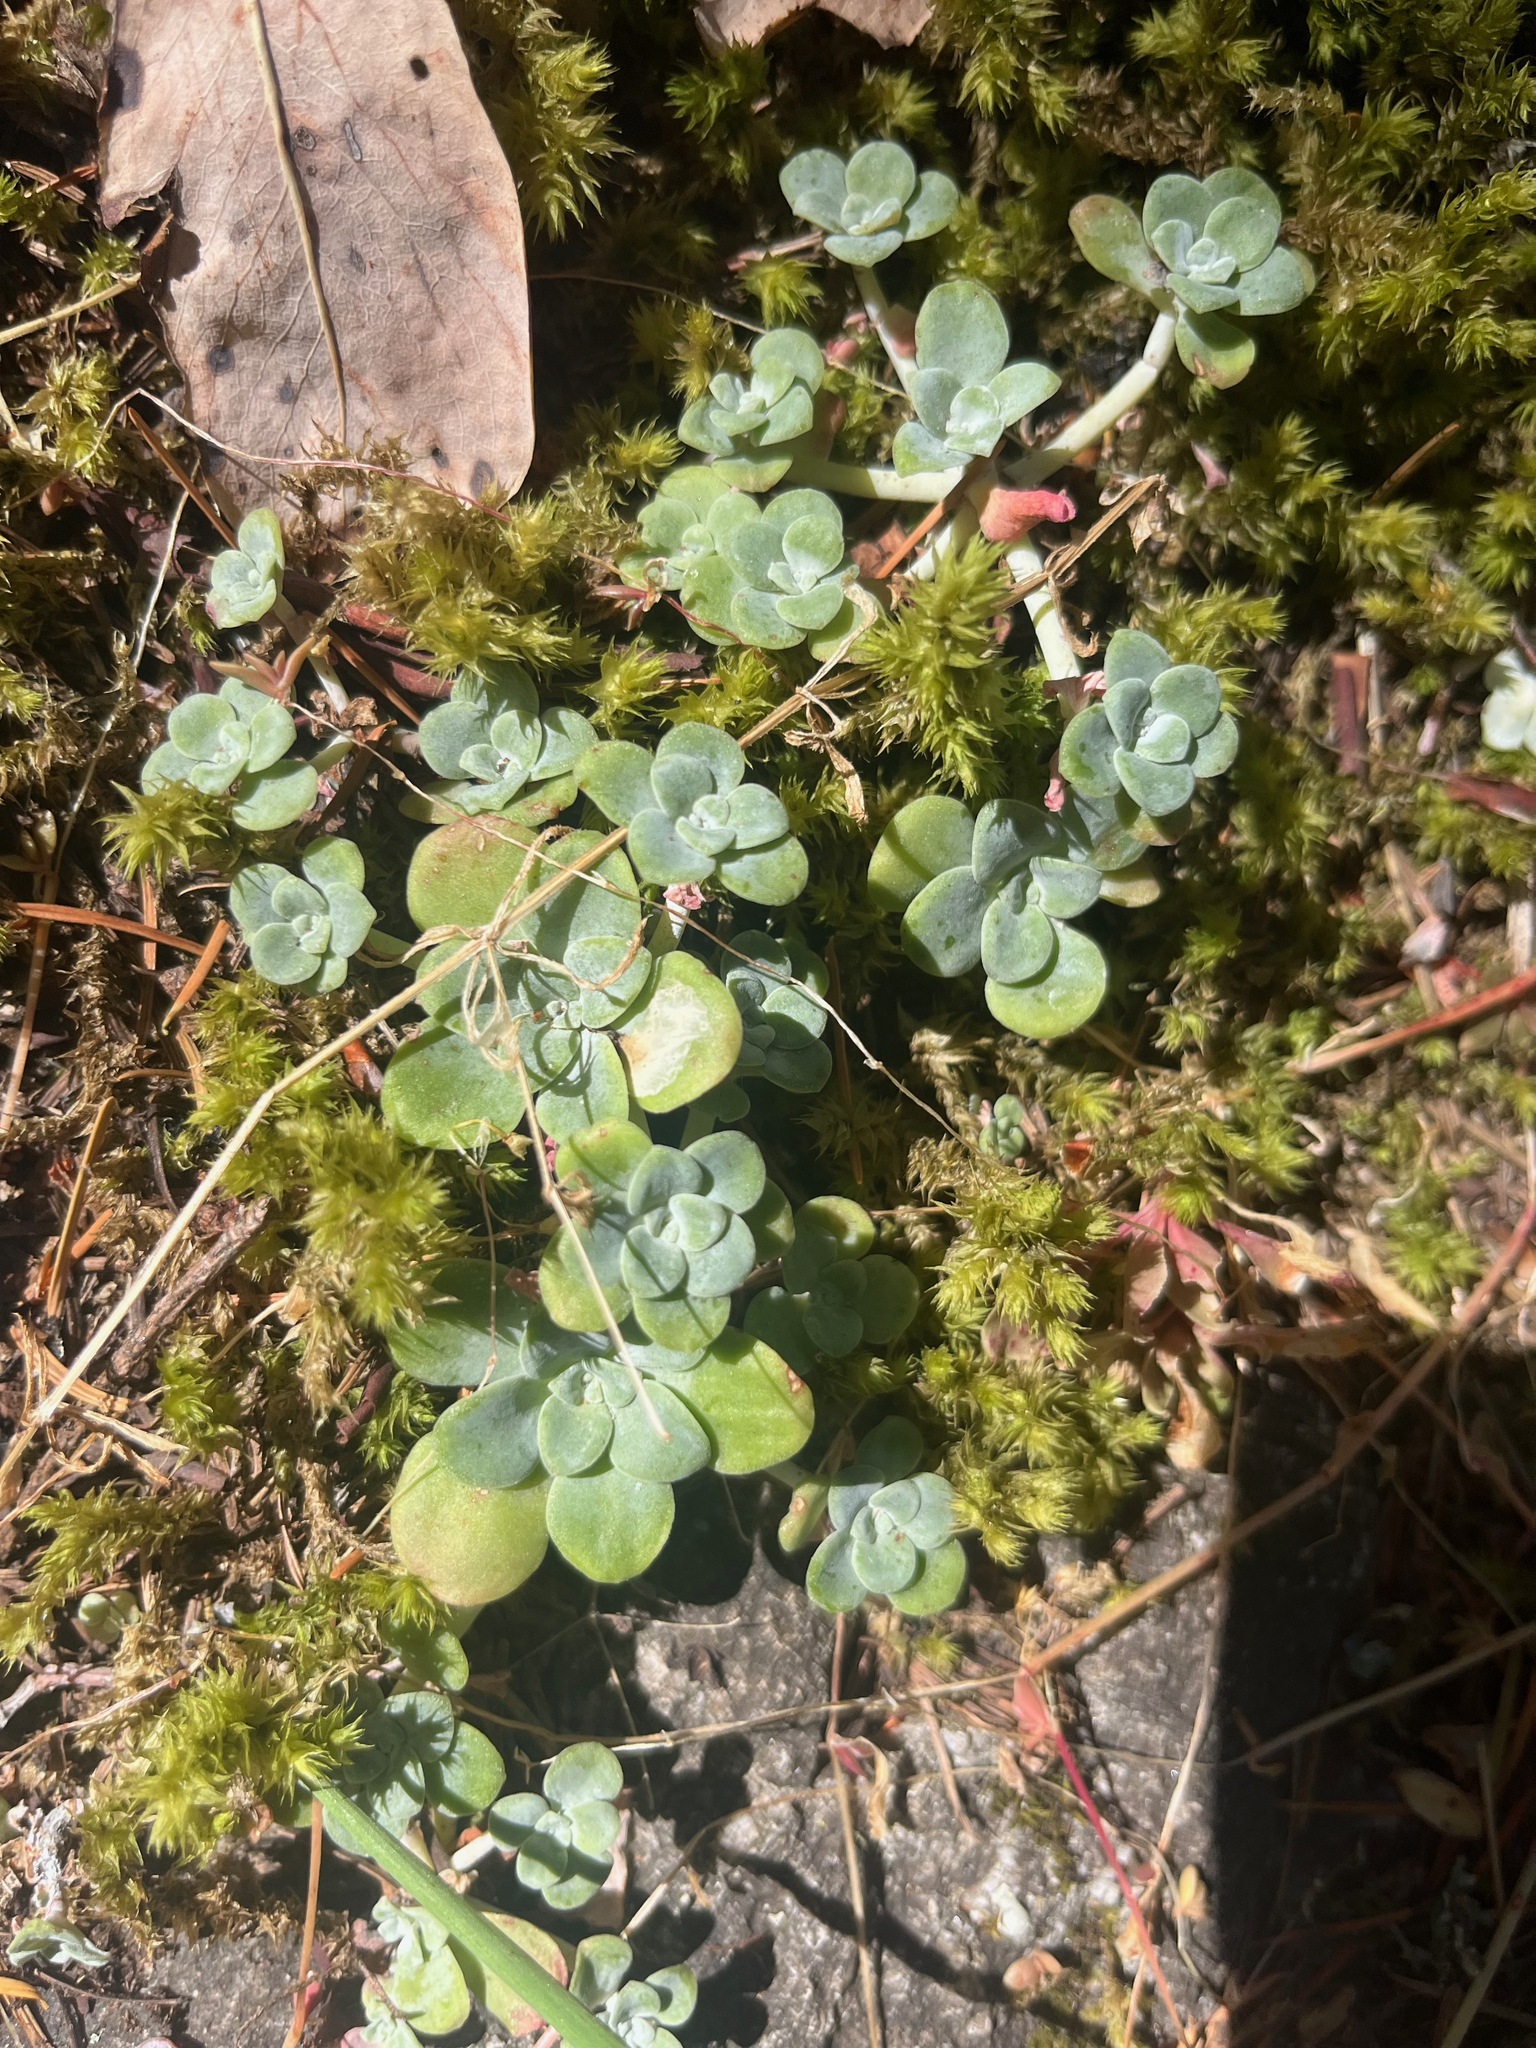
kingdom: Plantae
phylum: Tracheophyta
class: Magnoliopsida
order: Saxifragales
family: Crassulaceae
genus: Sedum
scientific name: Sedum spathulifolium
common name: Colorado stonecrop
